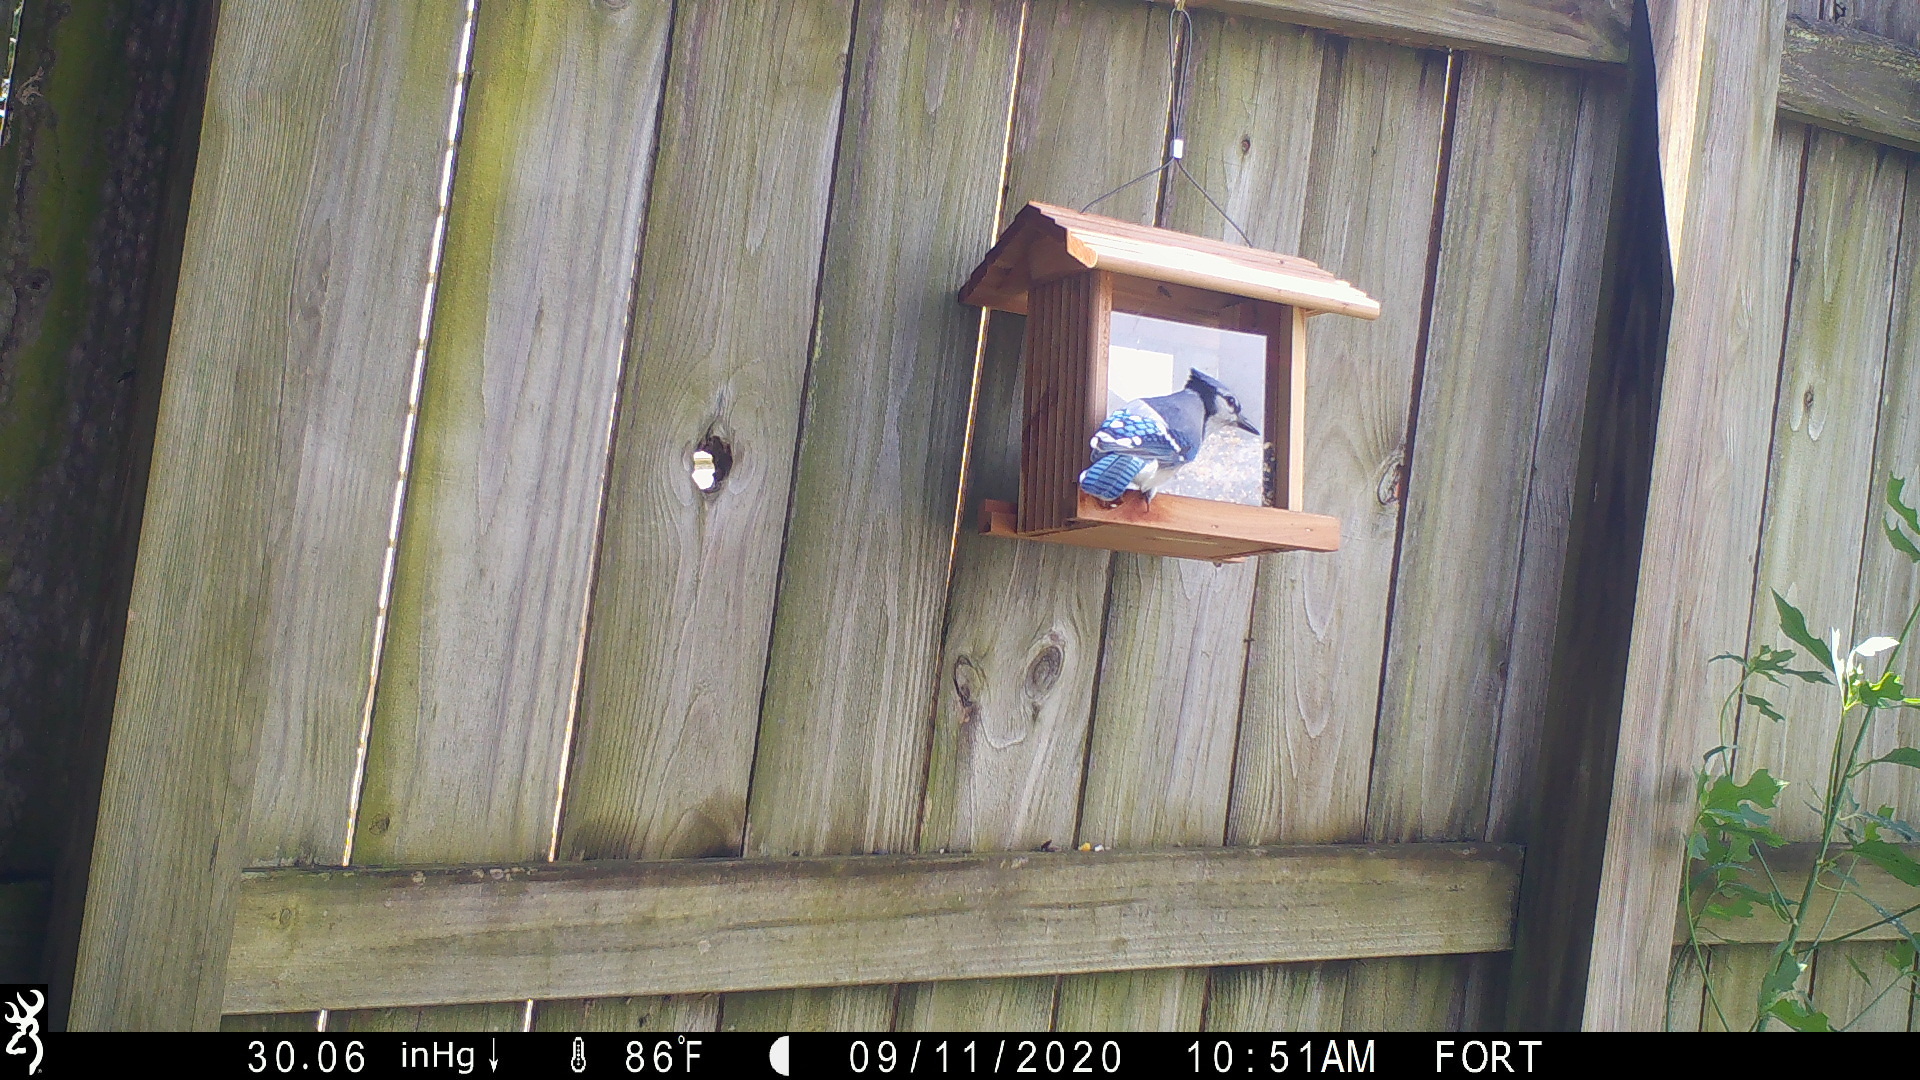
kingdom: Animalia
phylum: Chordata
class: Aves
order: Passeriformes
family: Corvidae
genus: Cyanocitta
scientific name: Cyanocitta cristata
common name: Blue jay
